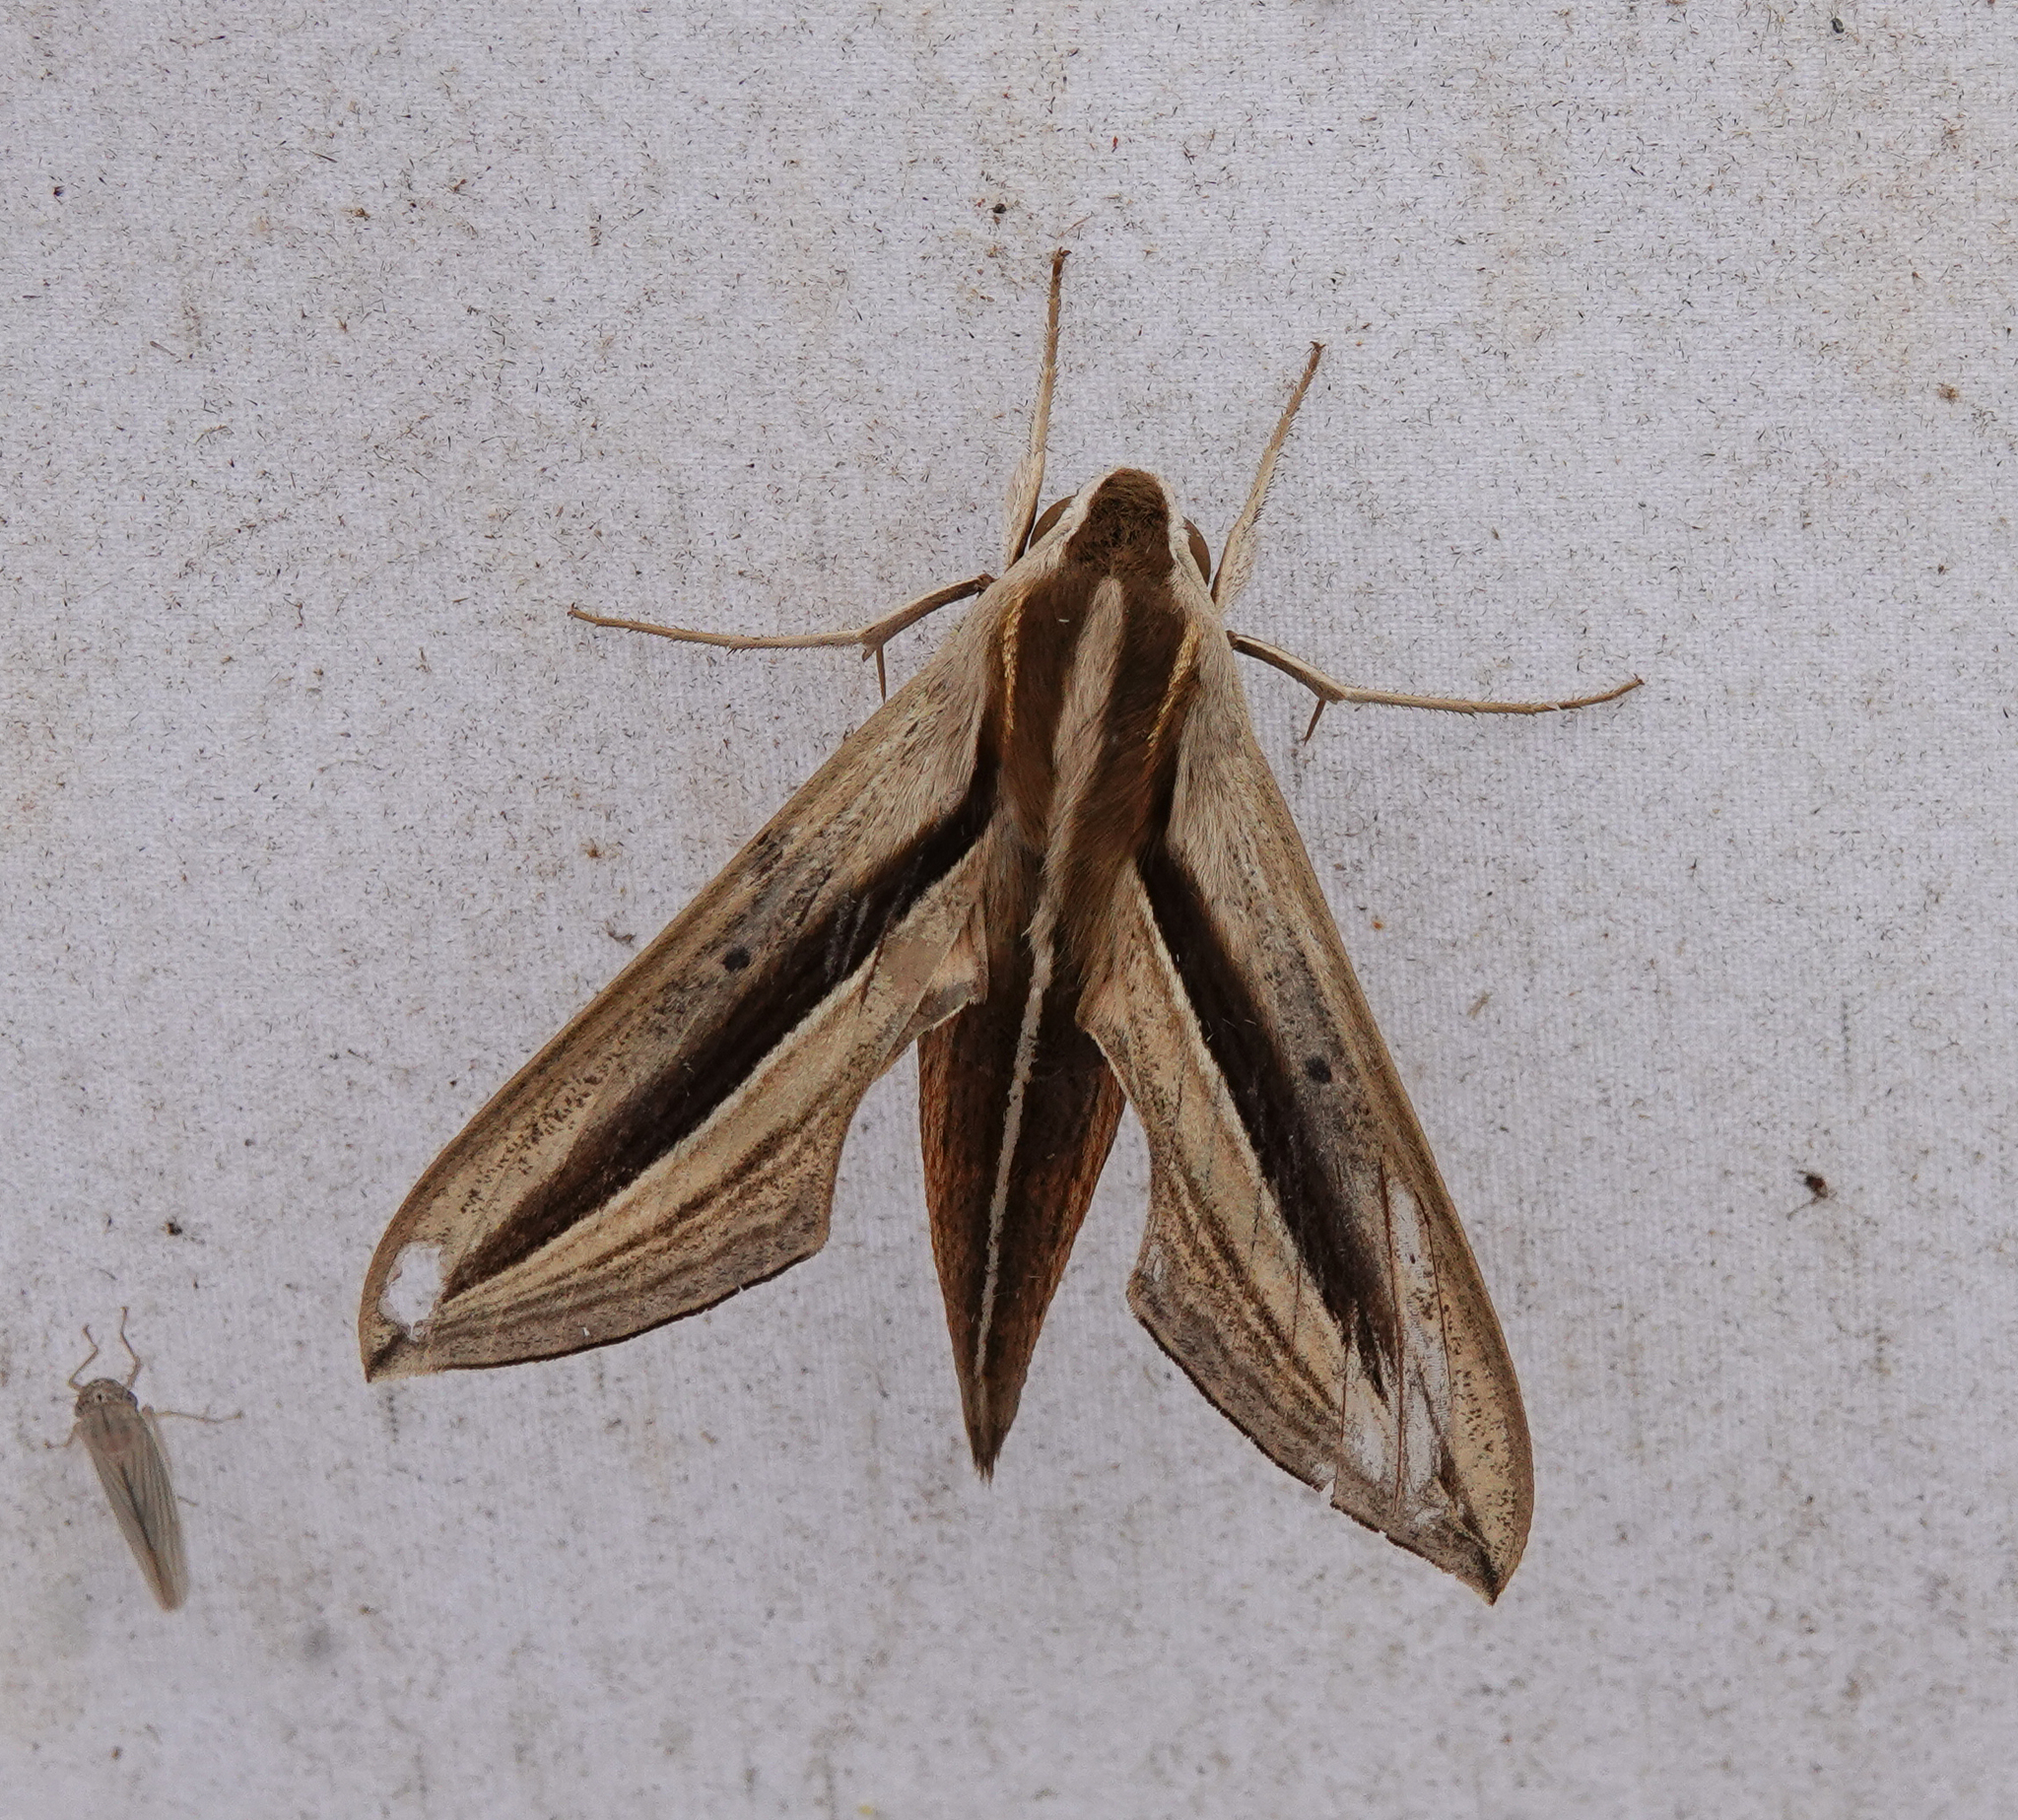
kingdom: Animalia
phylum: Arthropoda
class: Insecta
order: Lepidoptera
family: Sphingidae
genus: Theretra
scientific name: Theretra silhetensis
